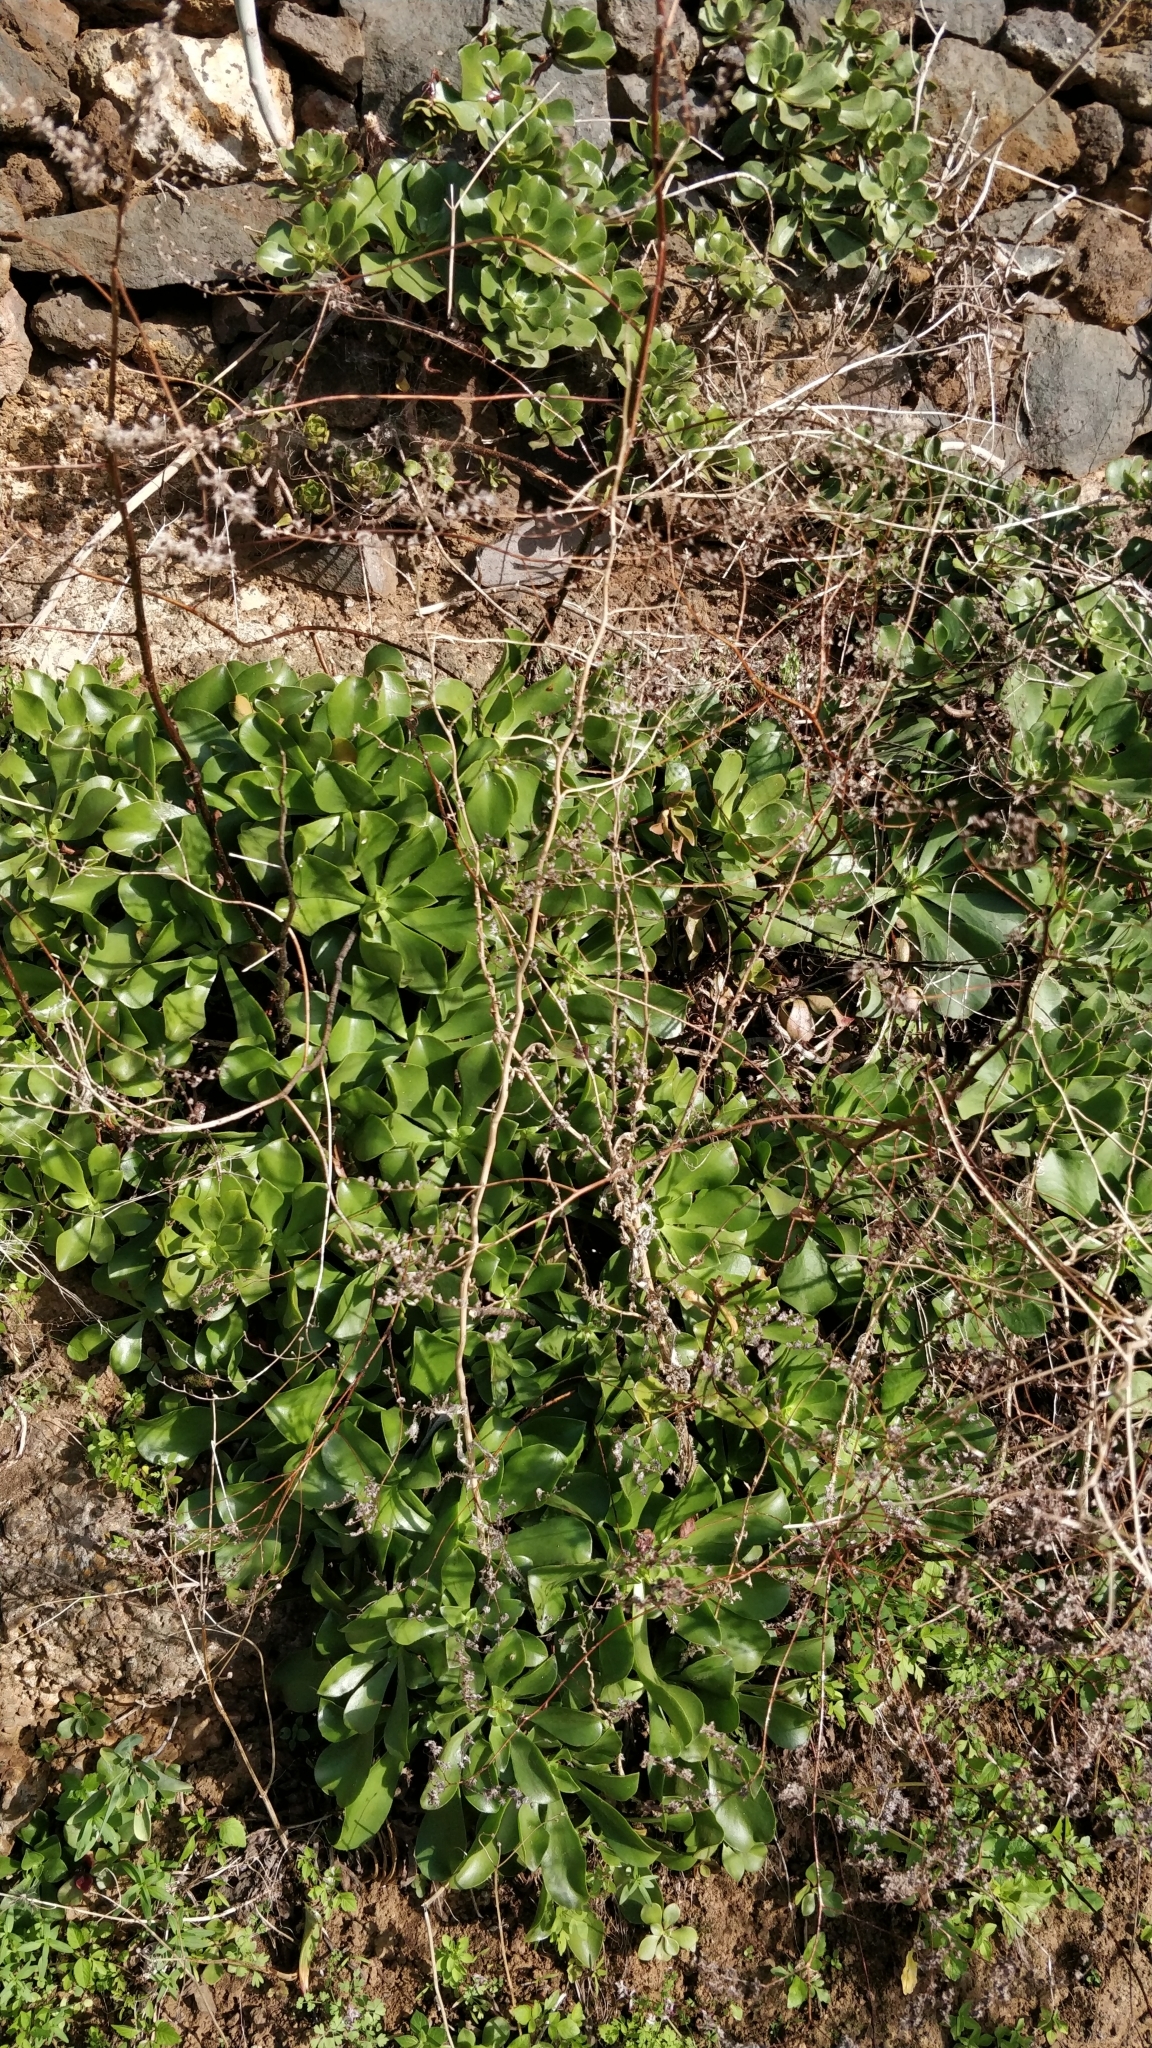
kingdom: Plantae
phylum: Tracheophyta
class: Magnoliopsida
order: Saxifragales
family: Crassulaceae
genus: Aeonium
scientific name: Aeonium glutinosum
